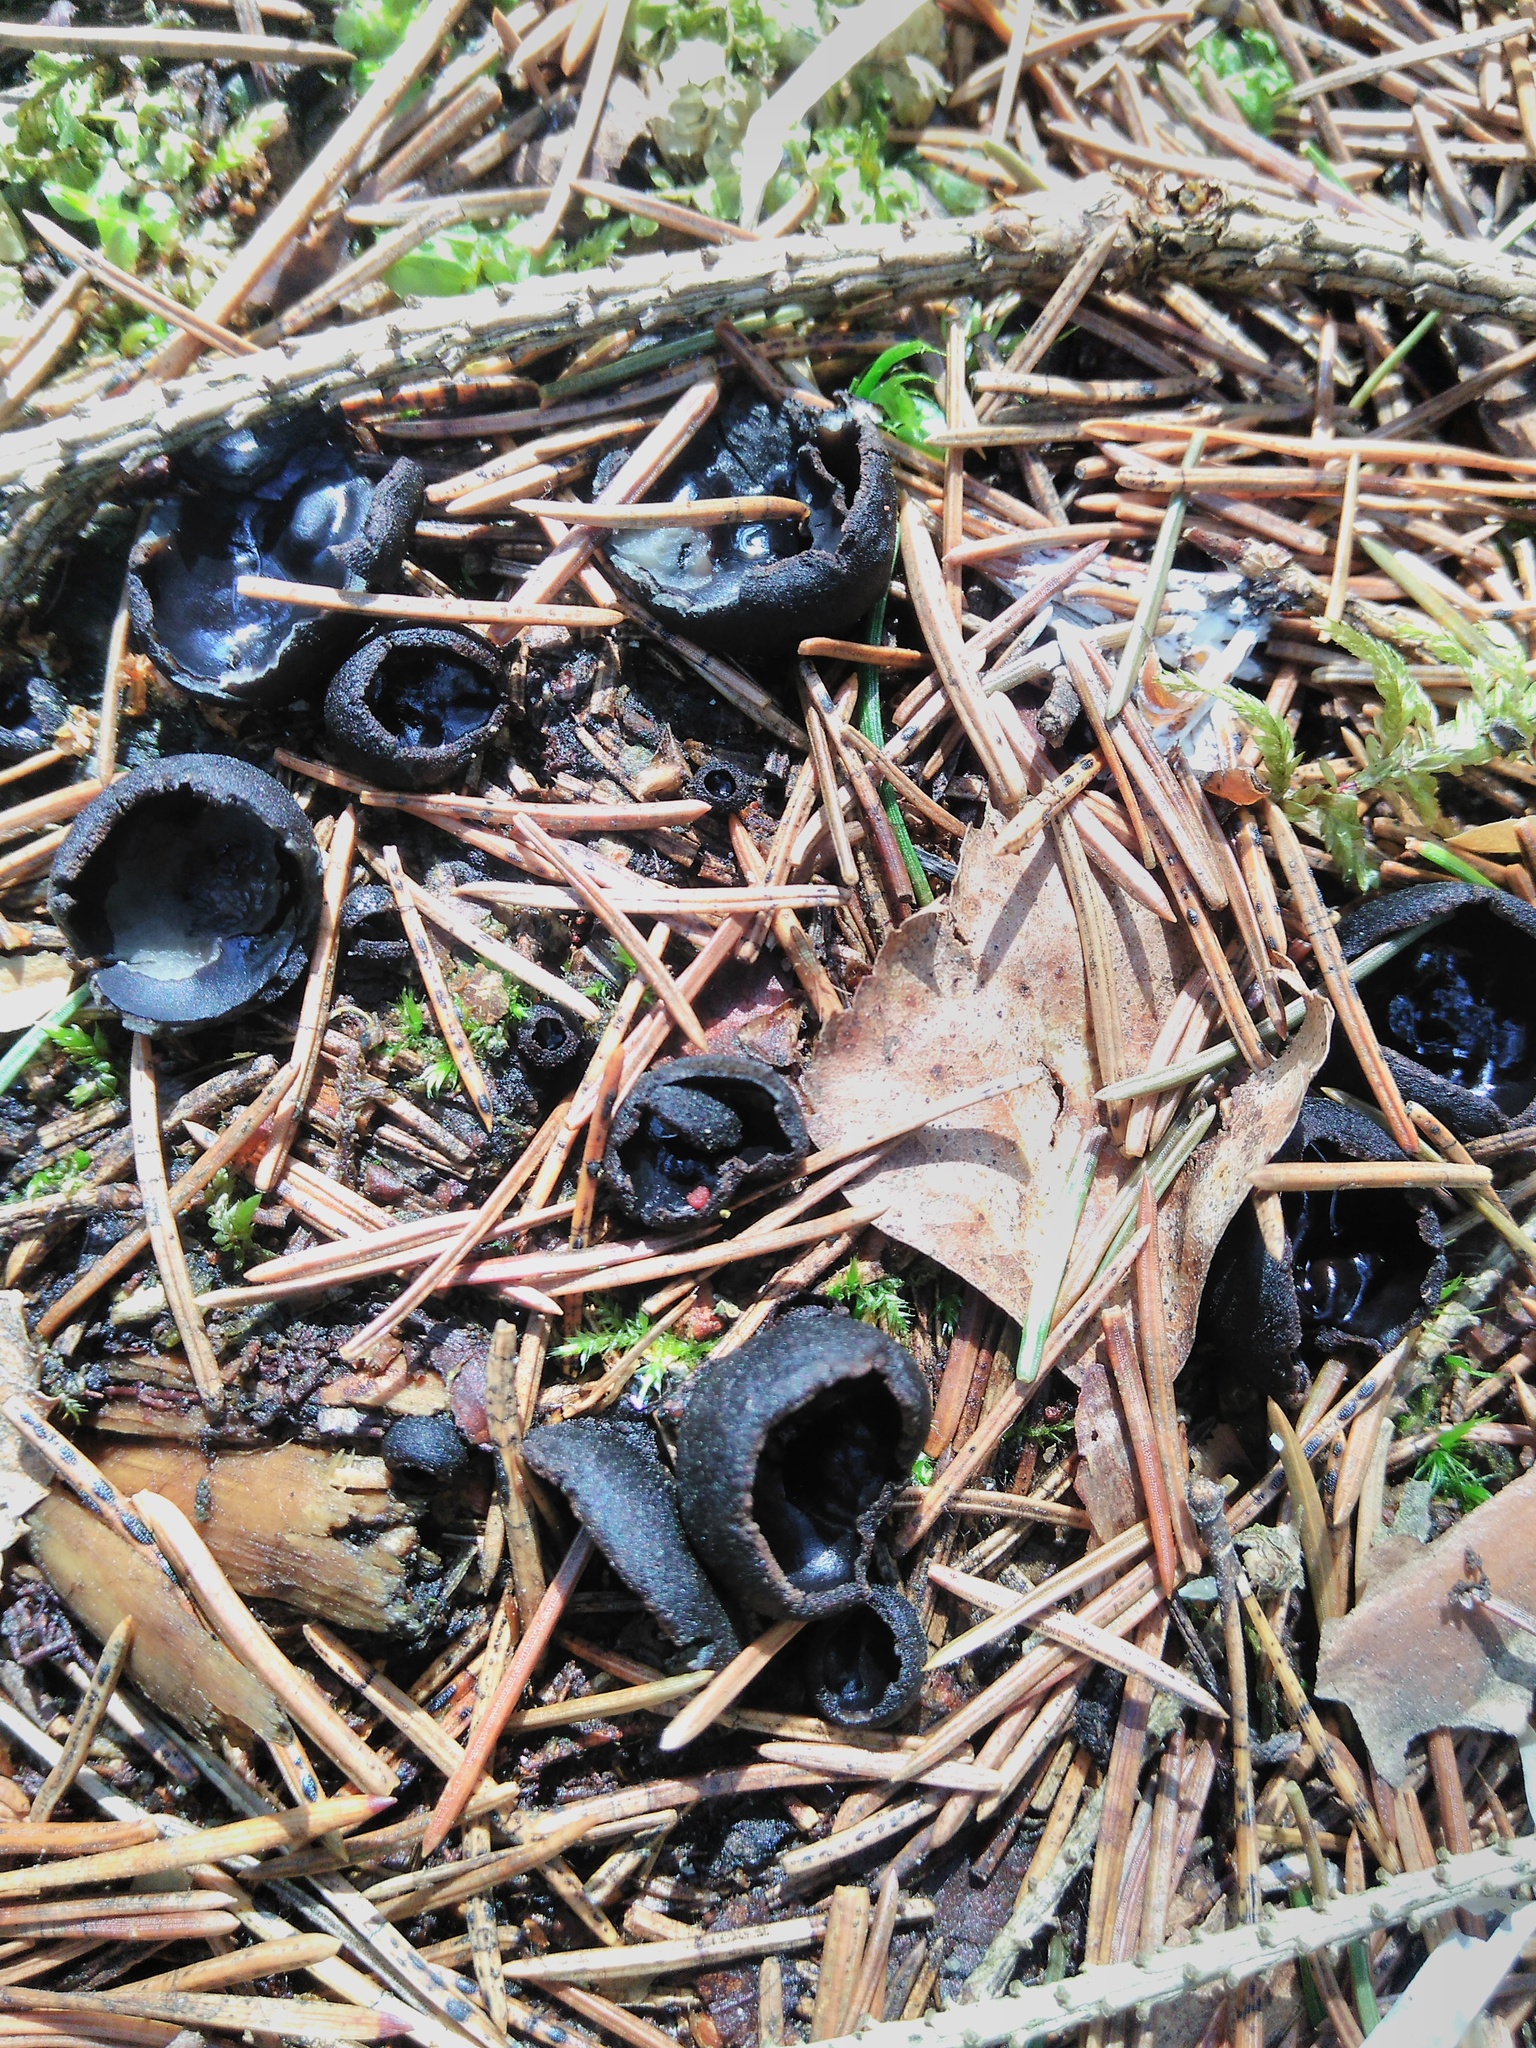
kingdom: Fungi
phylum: Ascomycota
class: Pezizomycetes
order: Pezizales
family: Sarcosomataceae
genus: Pseudoplectania
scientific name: Pseudoplectania nigrella
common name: Ebony cup
